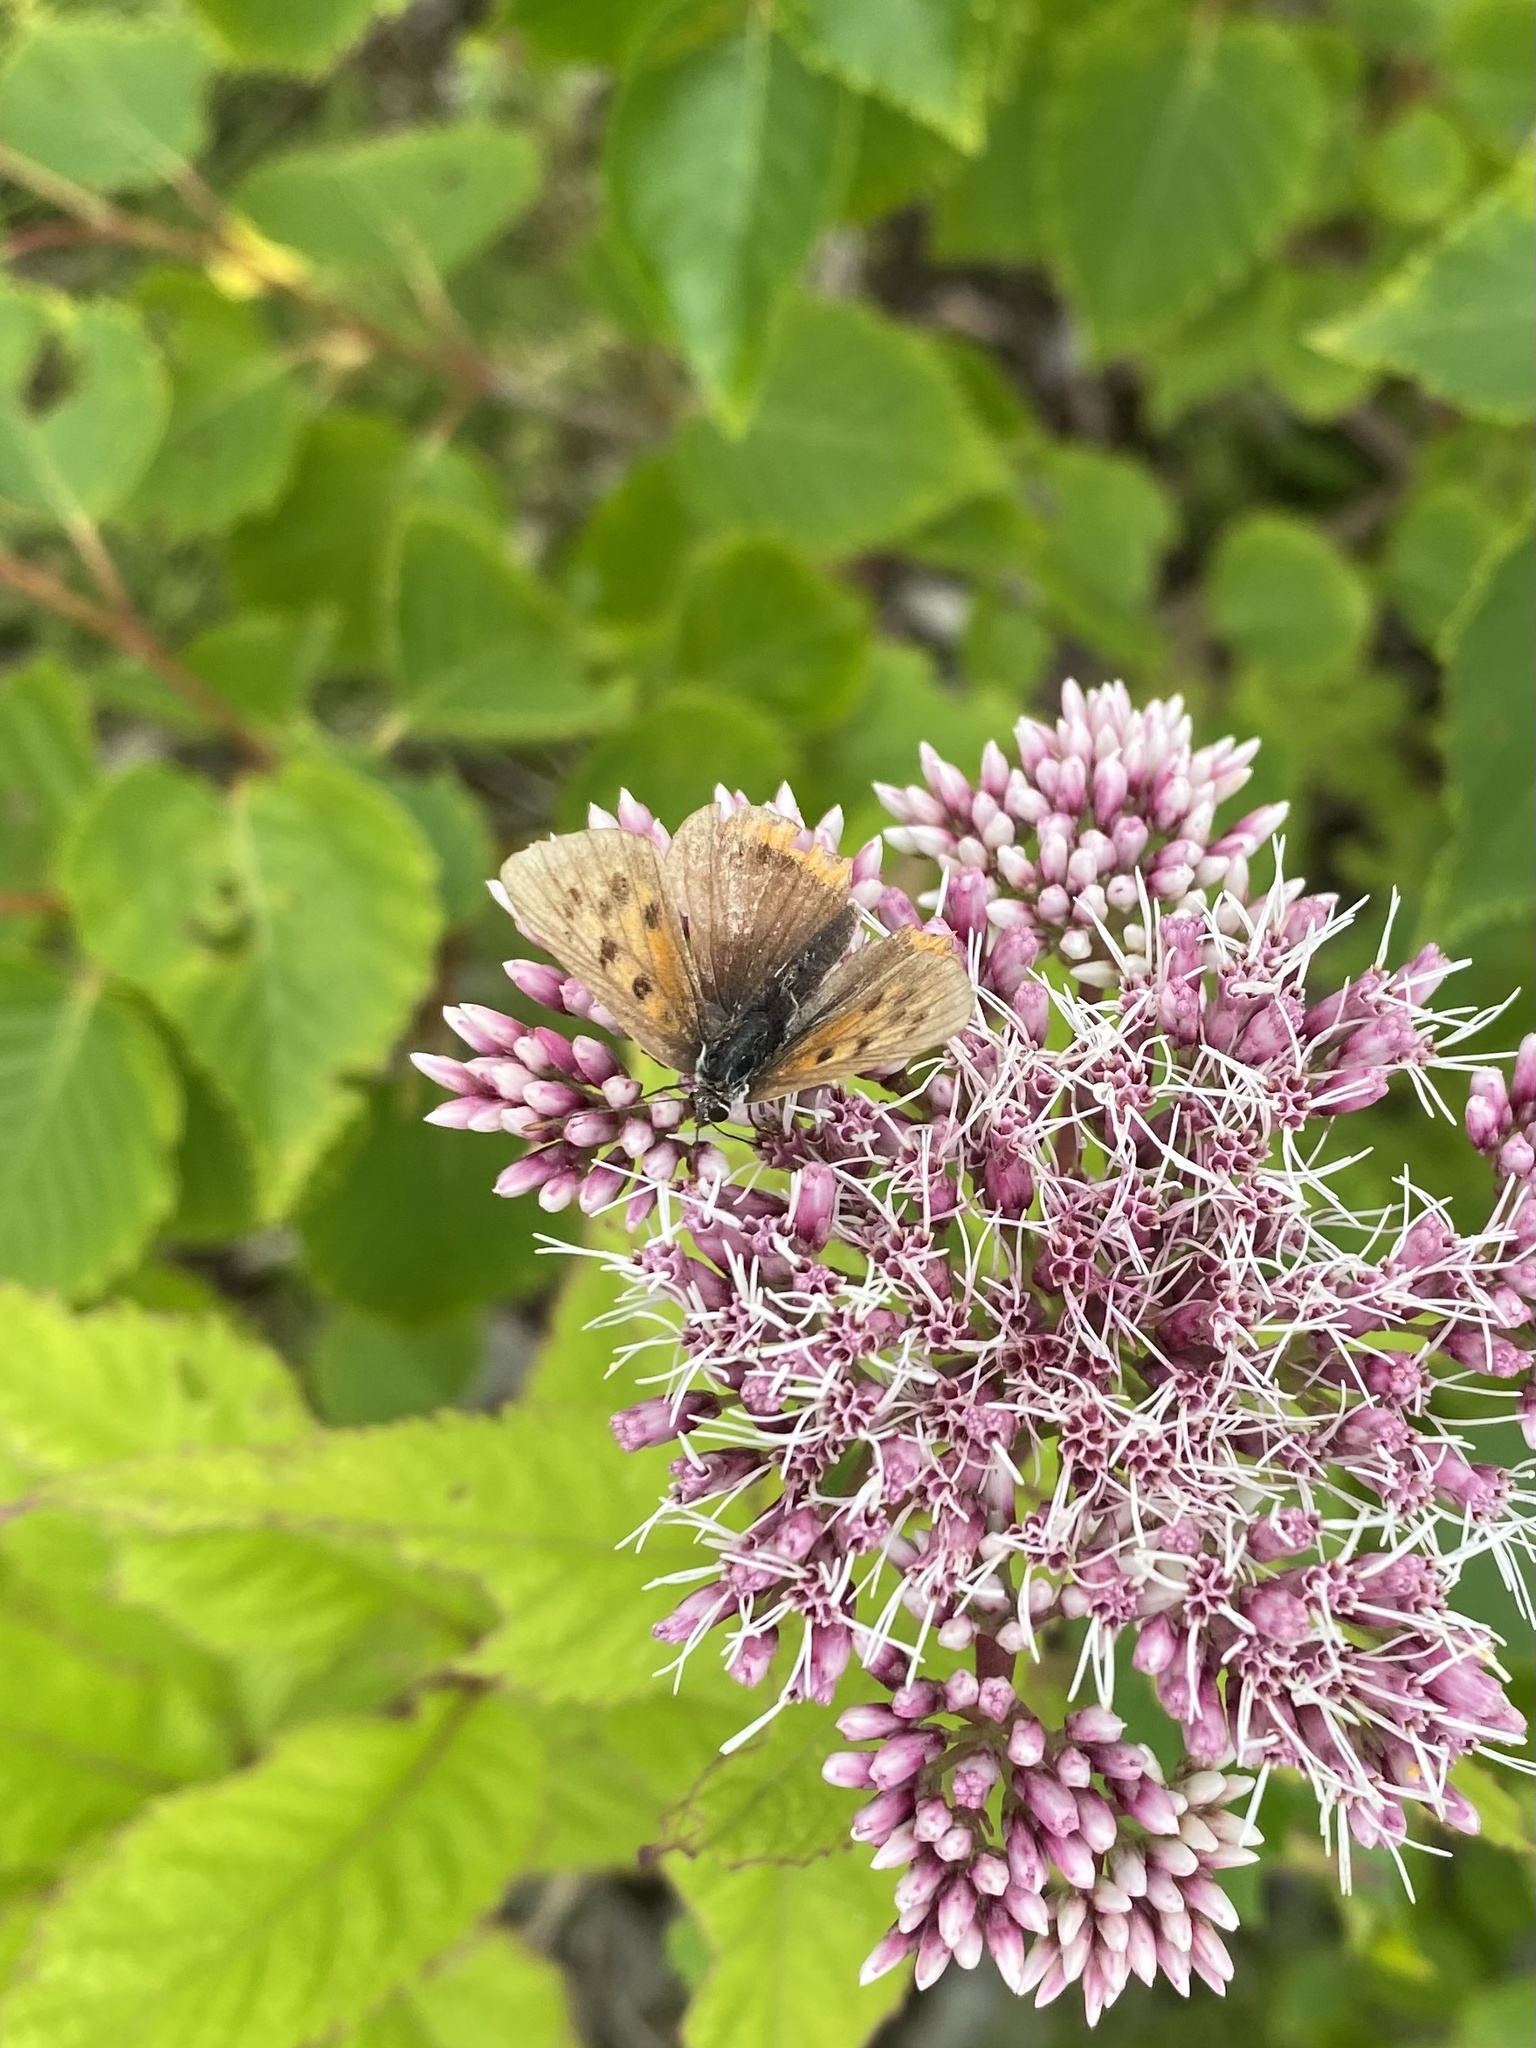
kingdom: Animalia
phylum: Arthropoda
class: Insecta
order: Lepidoptera
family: Lycaenidae
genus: Lycaena
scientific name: Lycaena phlaeas
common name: Small copper
